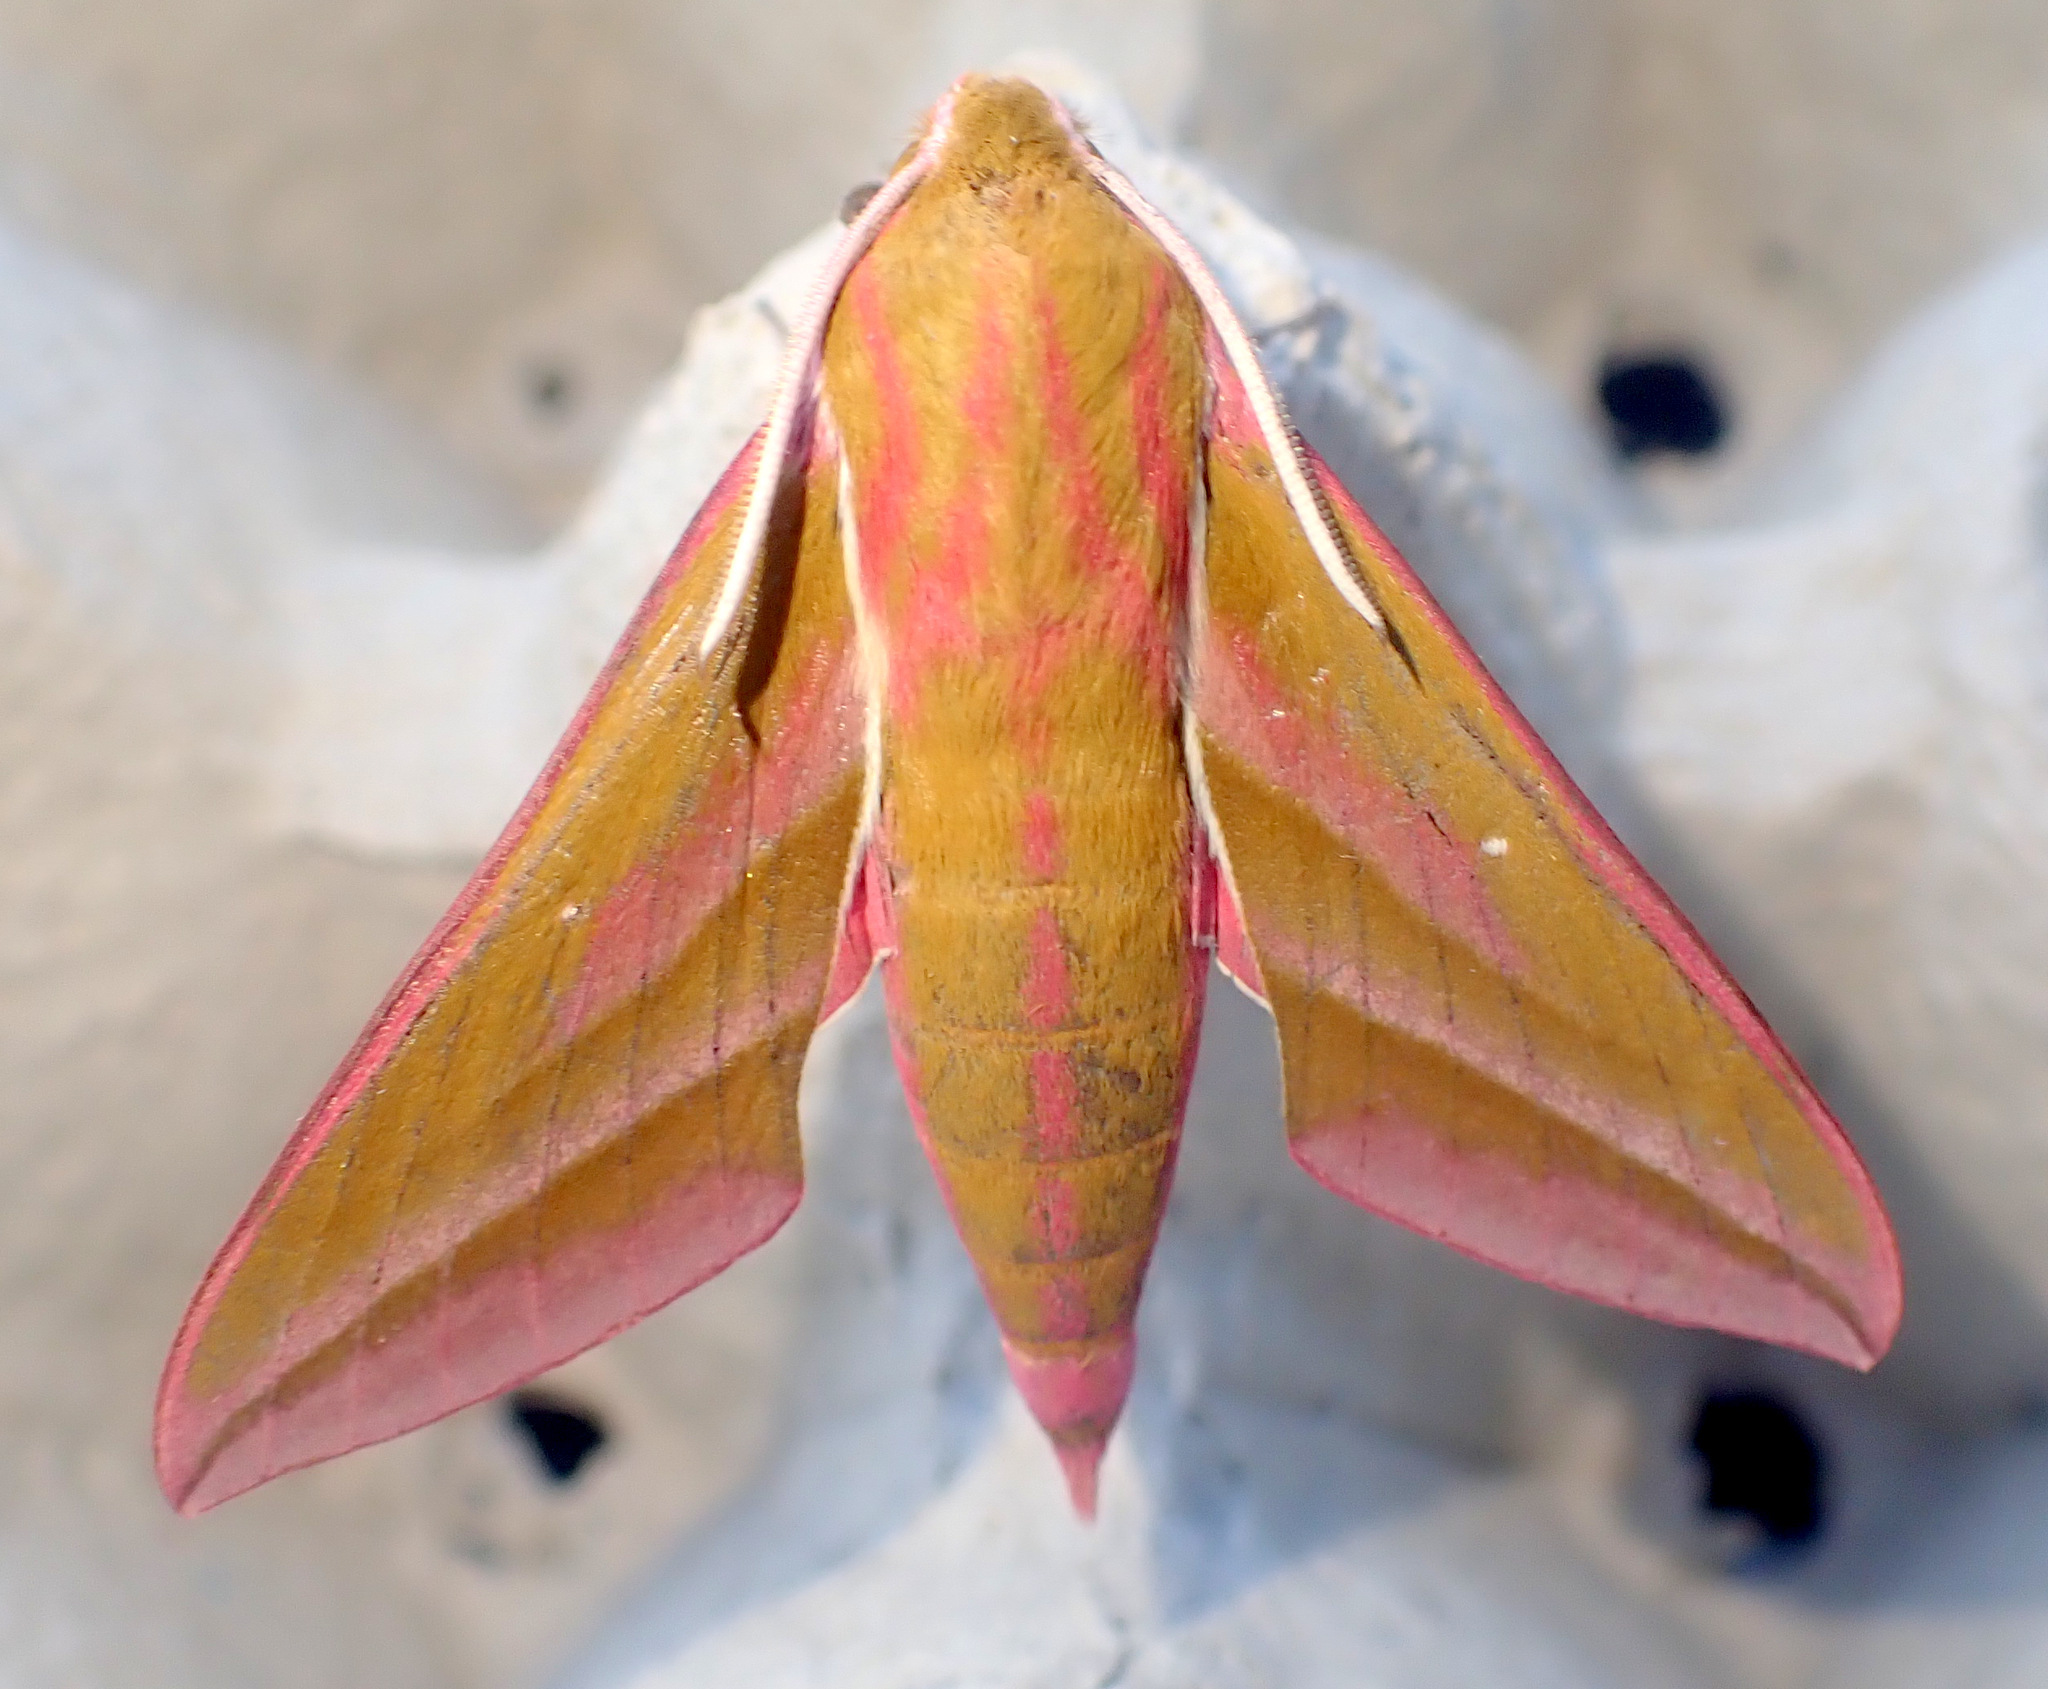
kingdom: Animalia
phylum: Arthropoda
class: Insecta
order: Lepidoptera
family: Sphingidae
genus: Deilephila
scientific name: Deilephila elpenor
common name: Elephant hawk-moth
